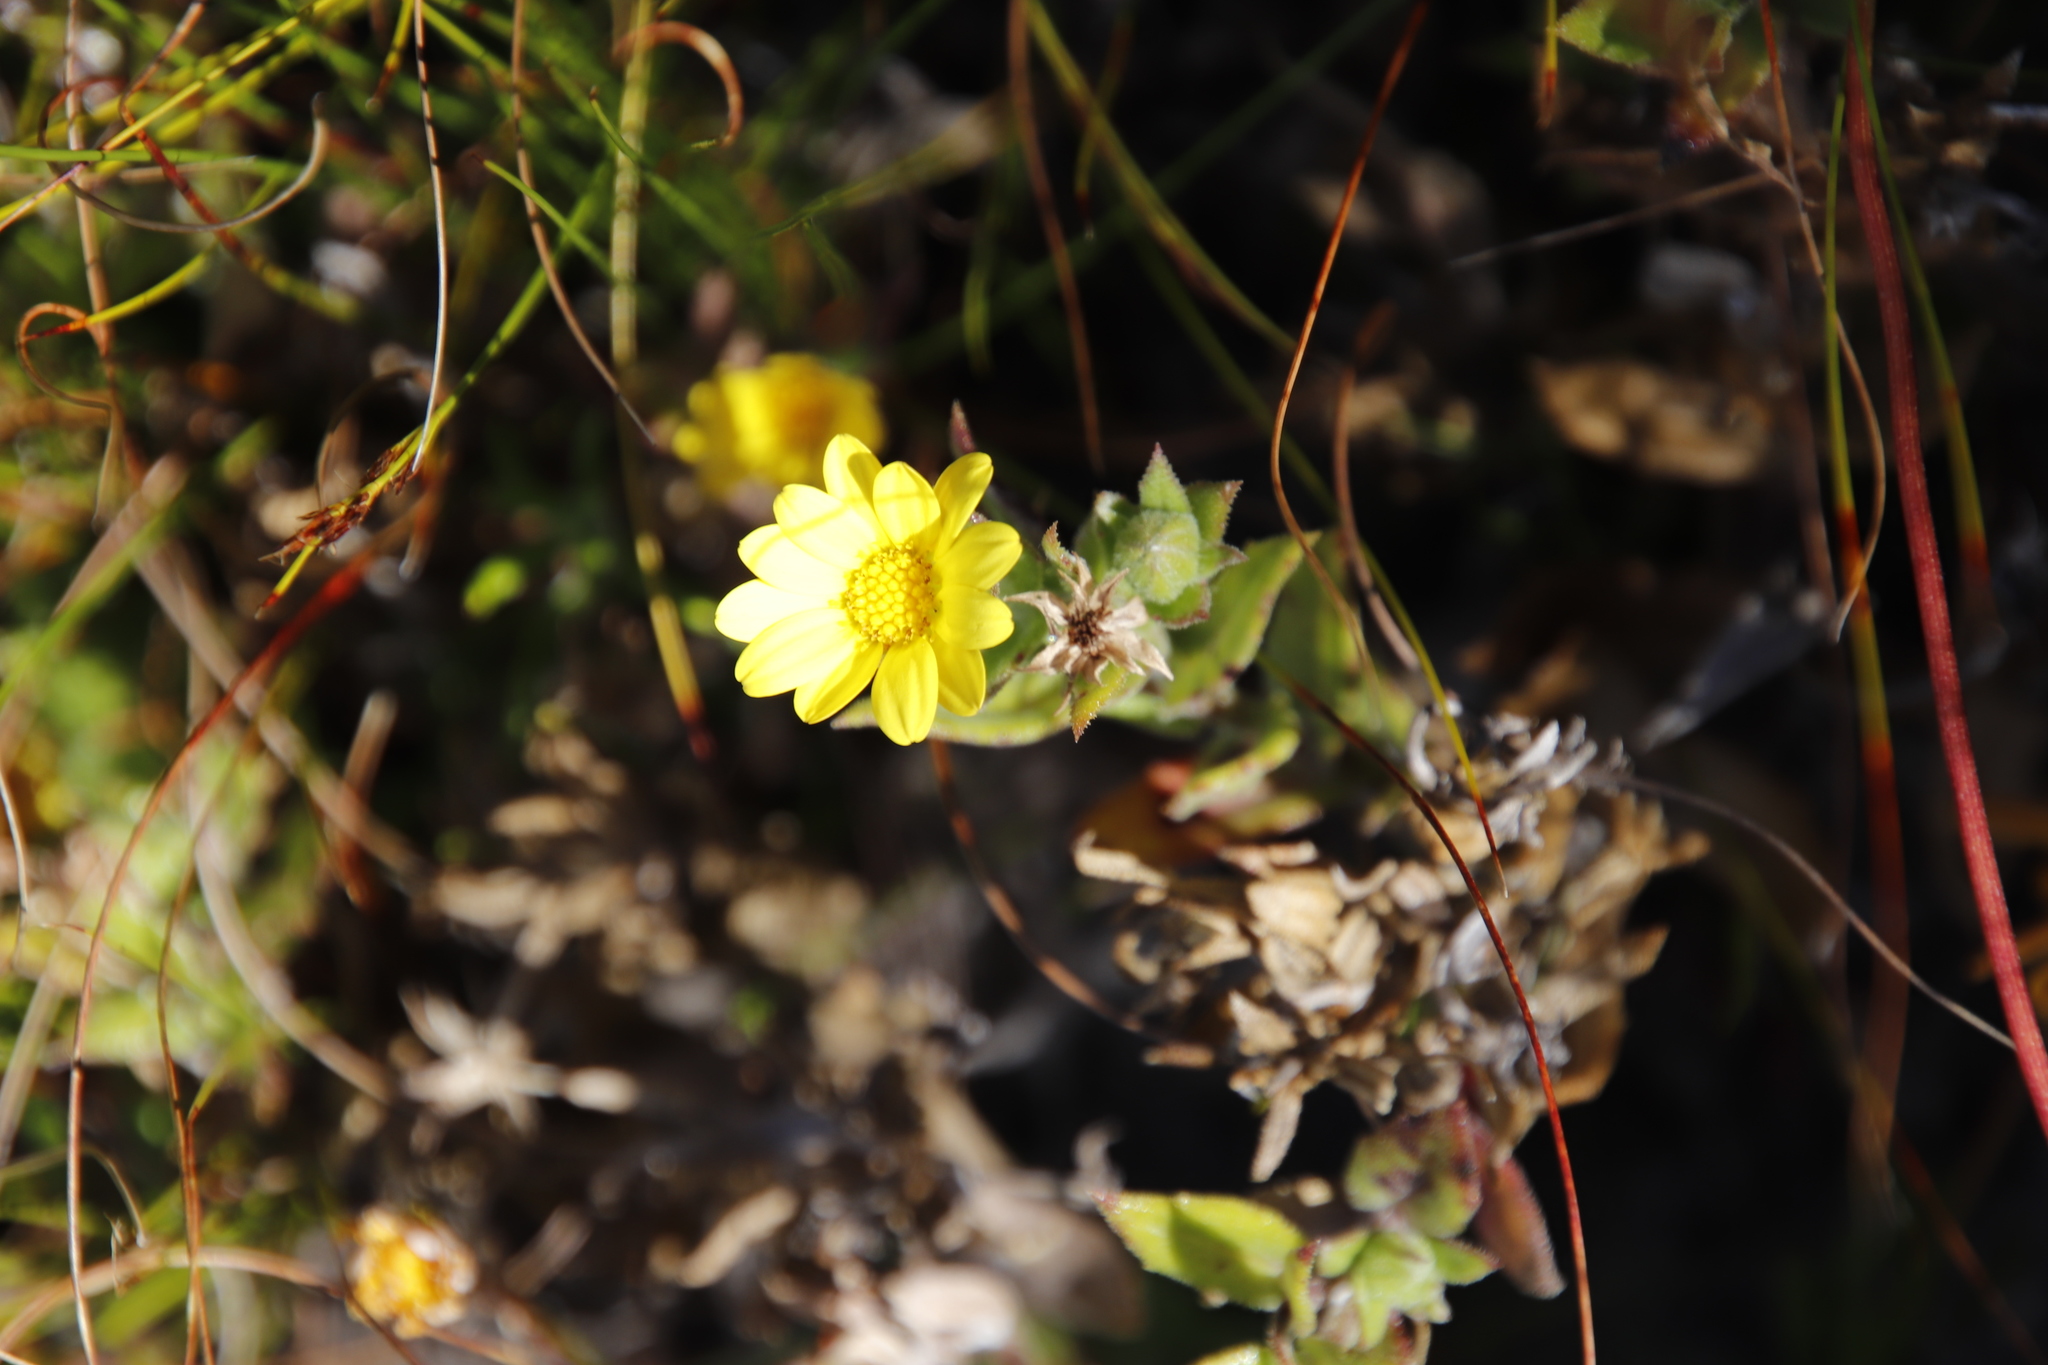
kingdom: Plantae
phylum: Tracheophyta
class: Magnoliopsida
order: Asterales
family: Asteraceae
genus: Osteospermum
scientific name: Osteospermum ilicifolium
